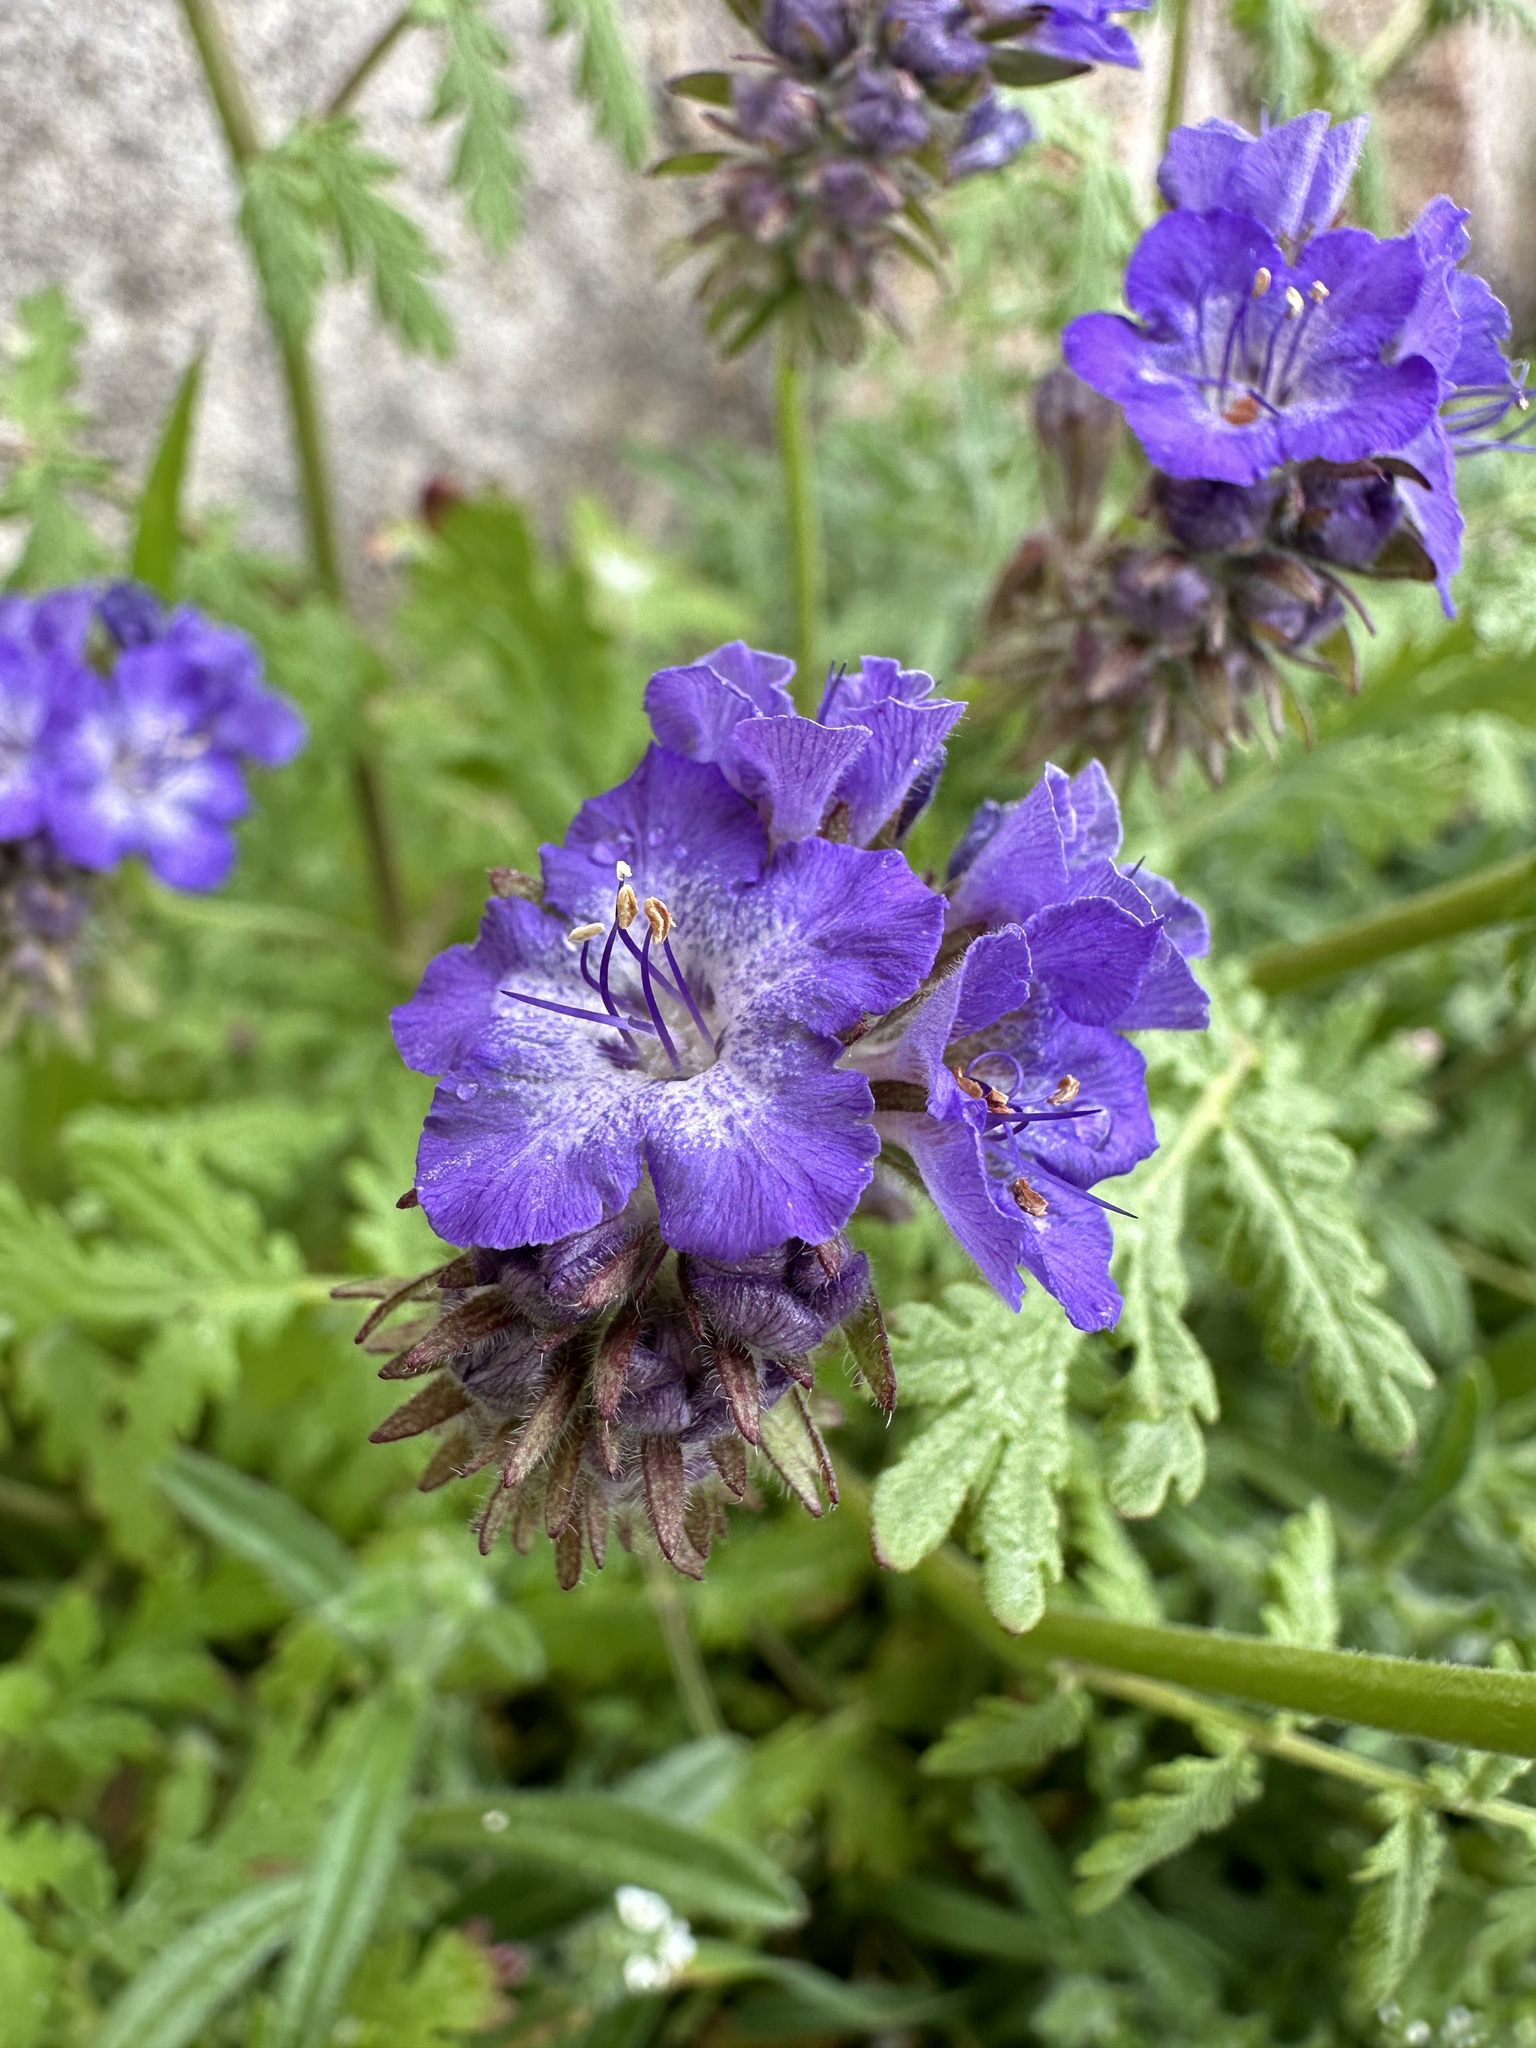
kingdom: Plantae
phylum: Tracheophyta
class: Magnoliopsida
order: Boraginales
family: Hydrophyllaceae
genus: Phacelia
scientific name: Phacelia distans
